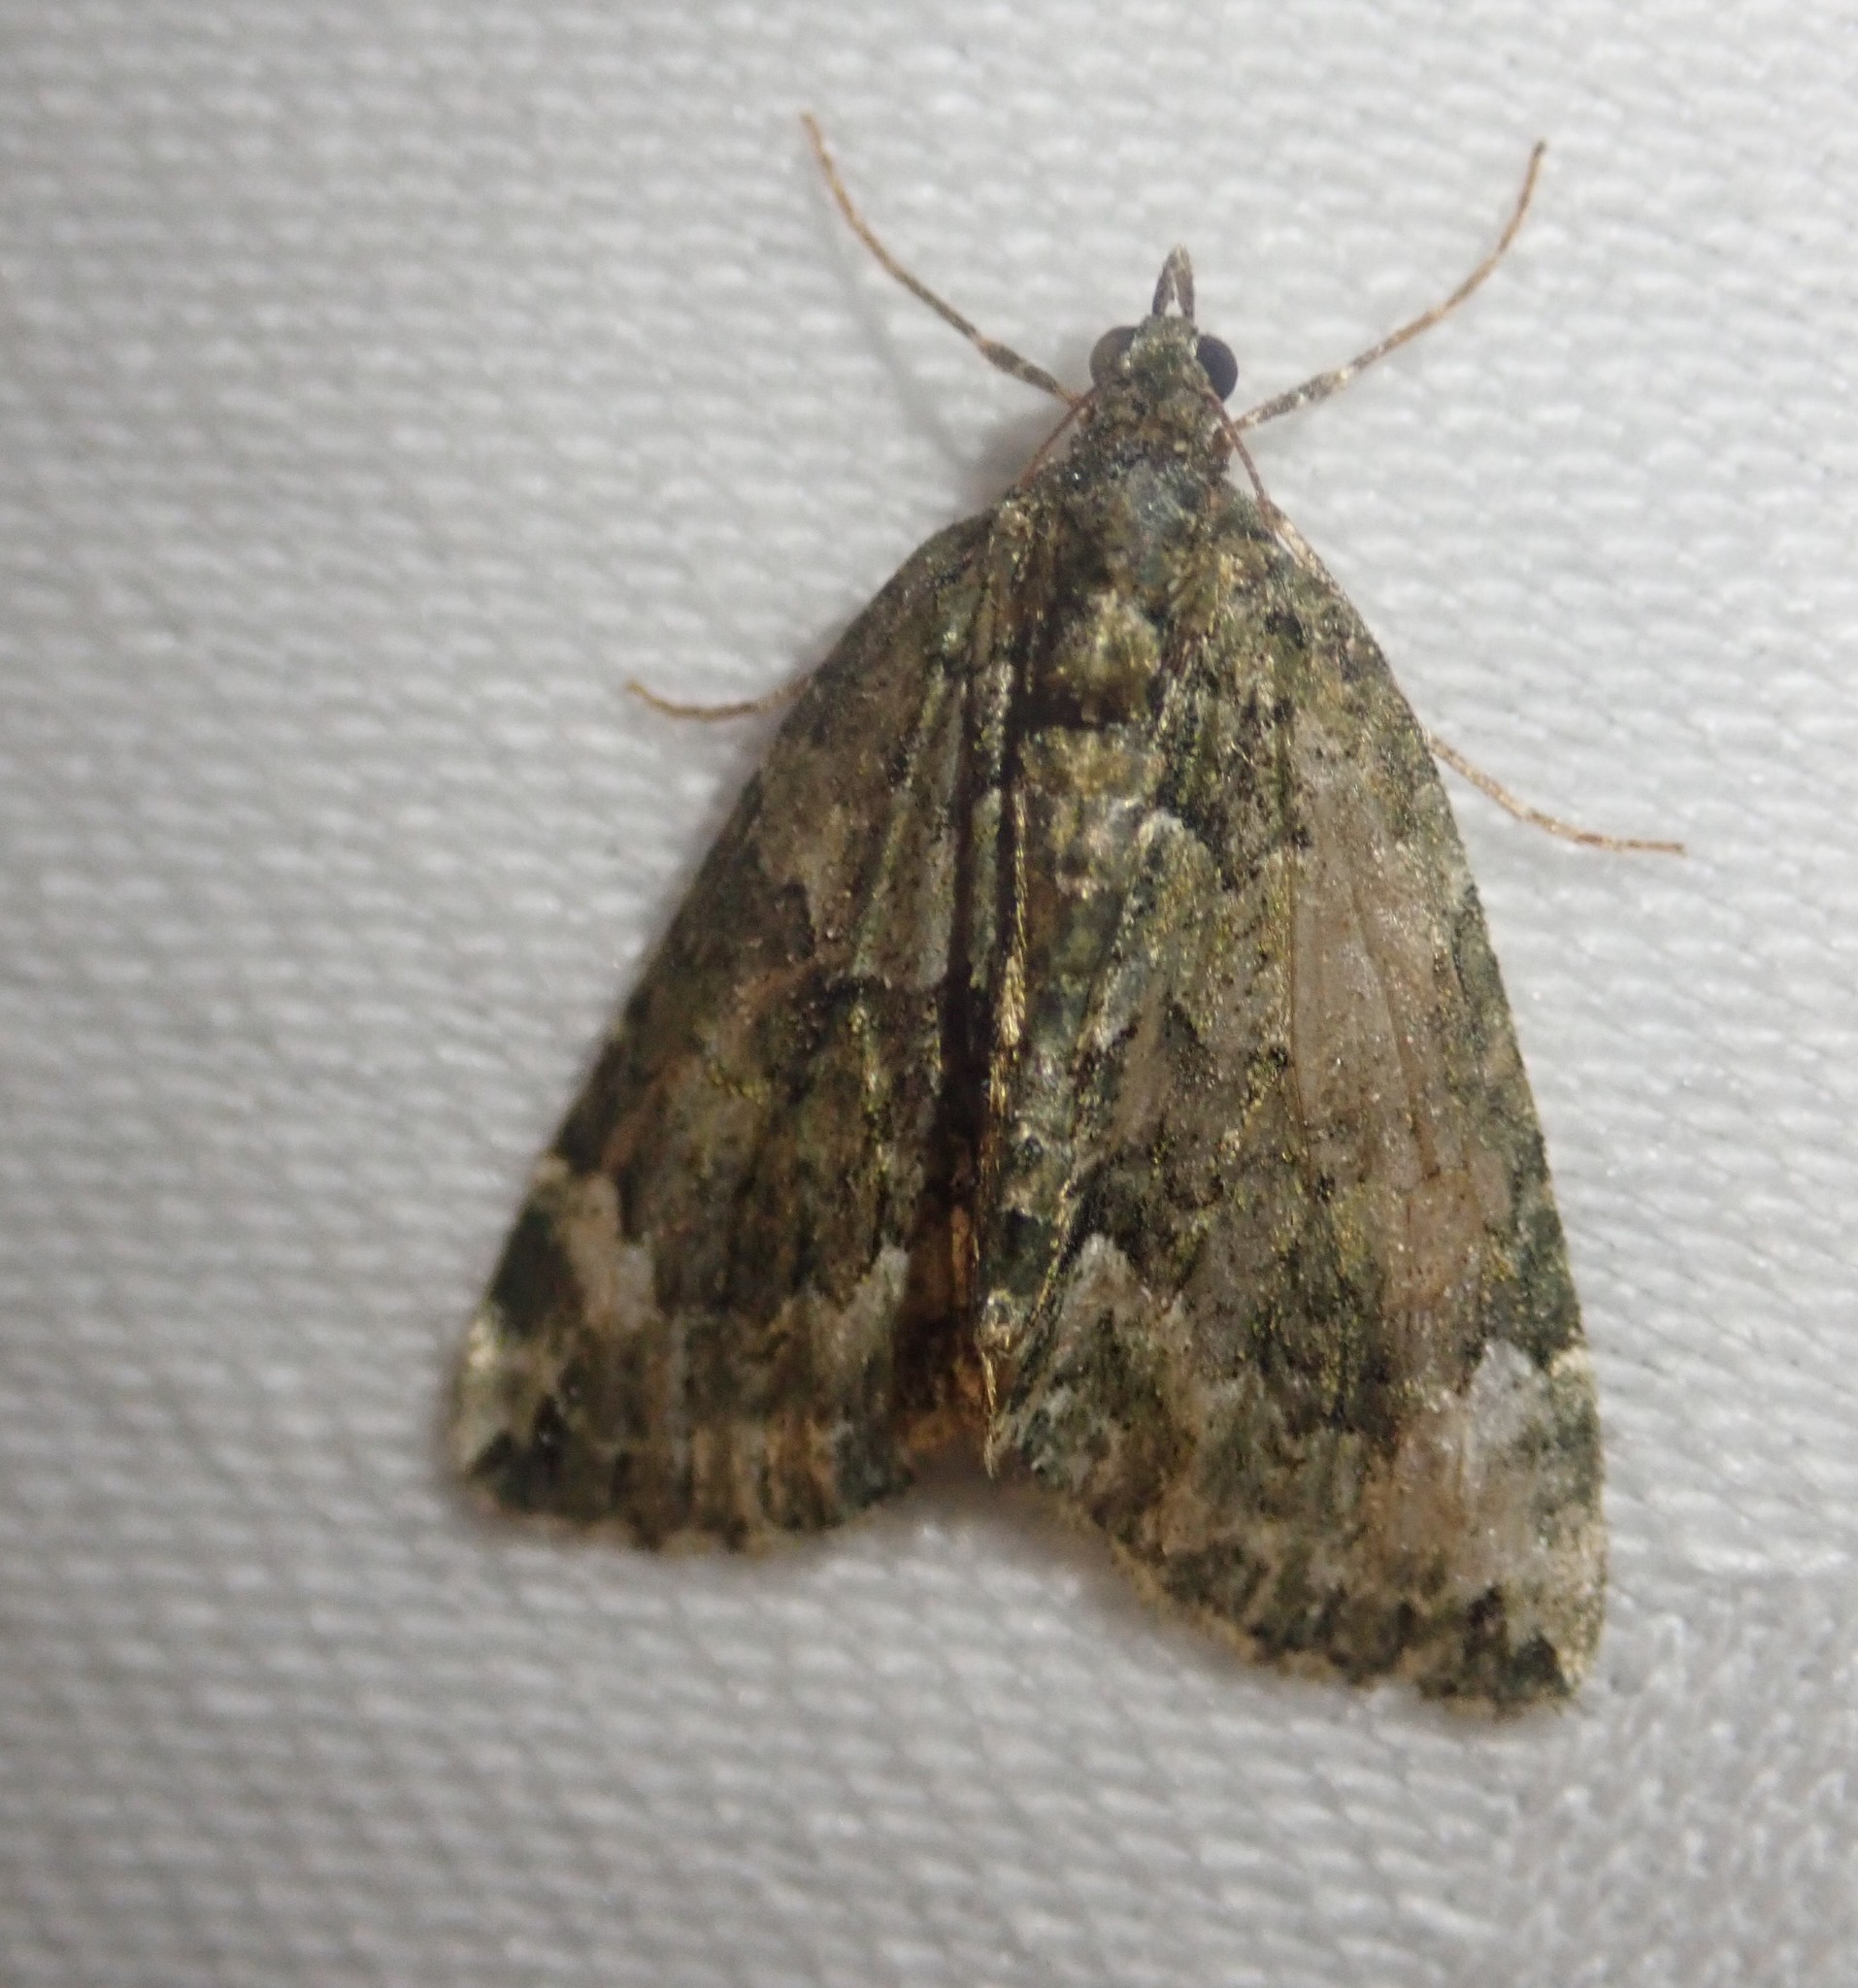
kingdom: Animalia
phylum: Arthropoda
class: Insecta
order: Lepidoptera
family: Geometridae
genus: Chloroclysta
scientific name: Chloroclysta siterata
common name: Red-green carpet
